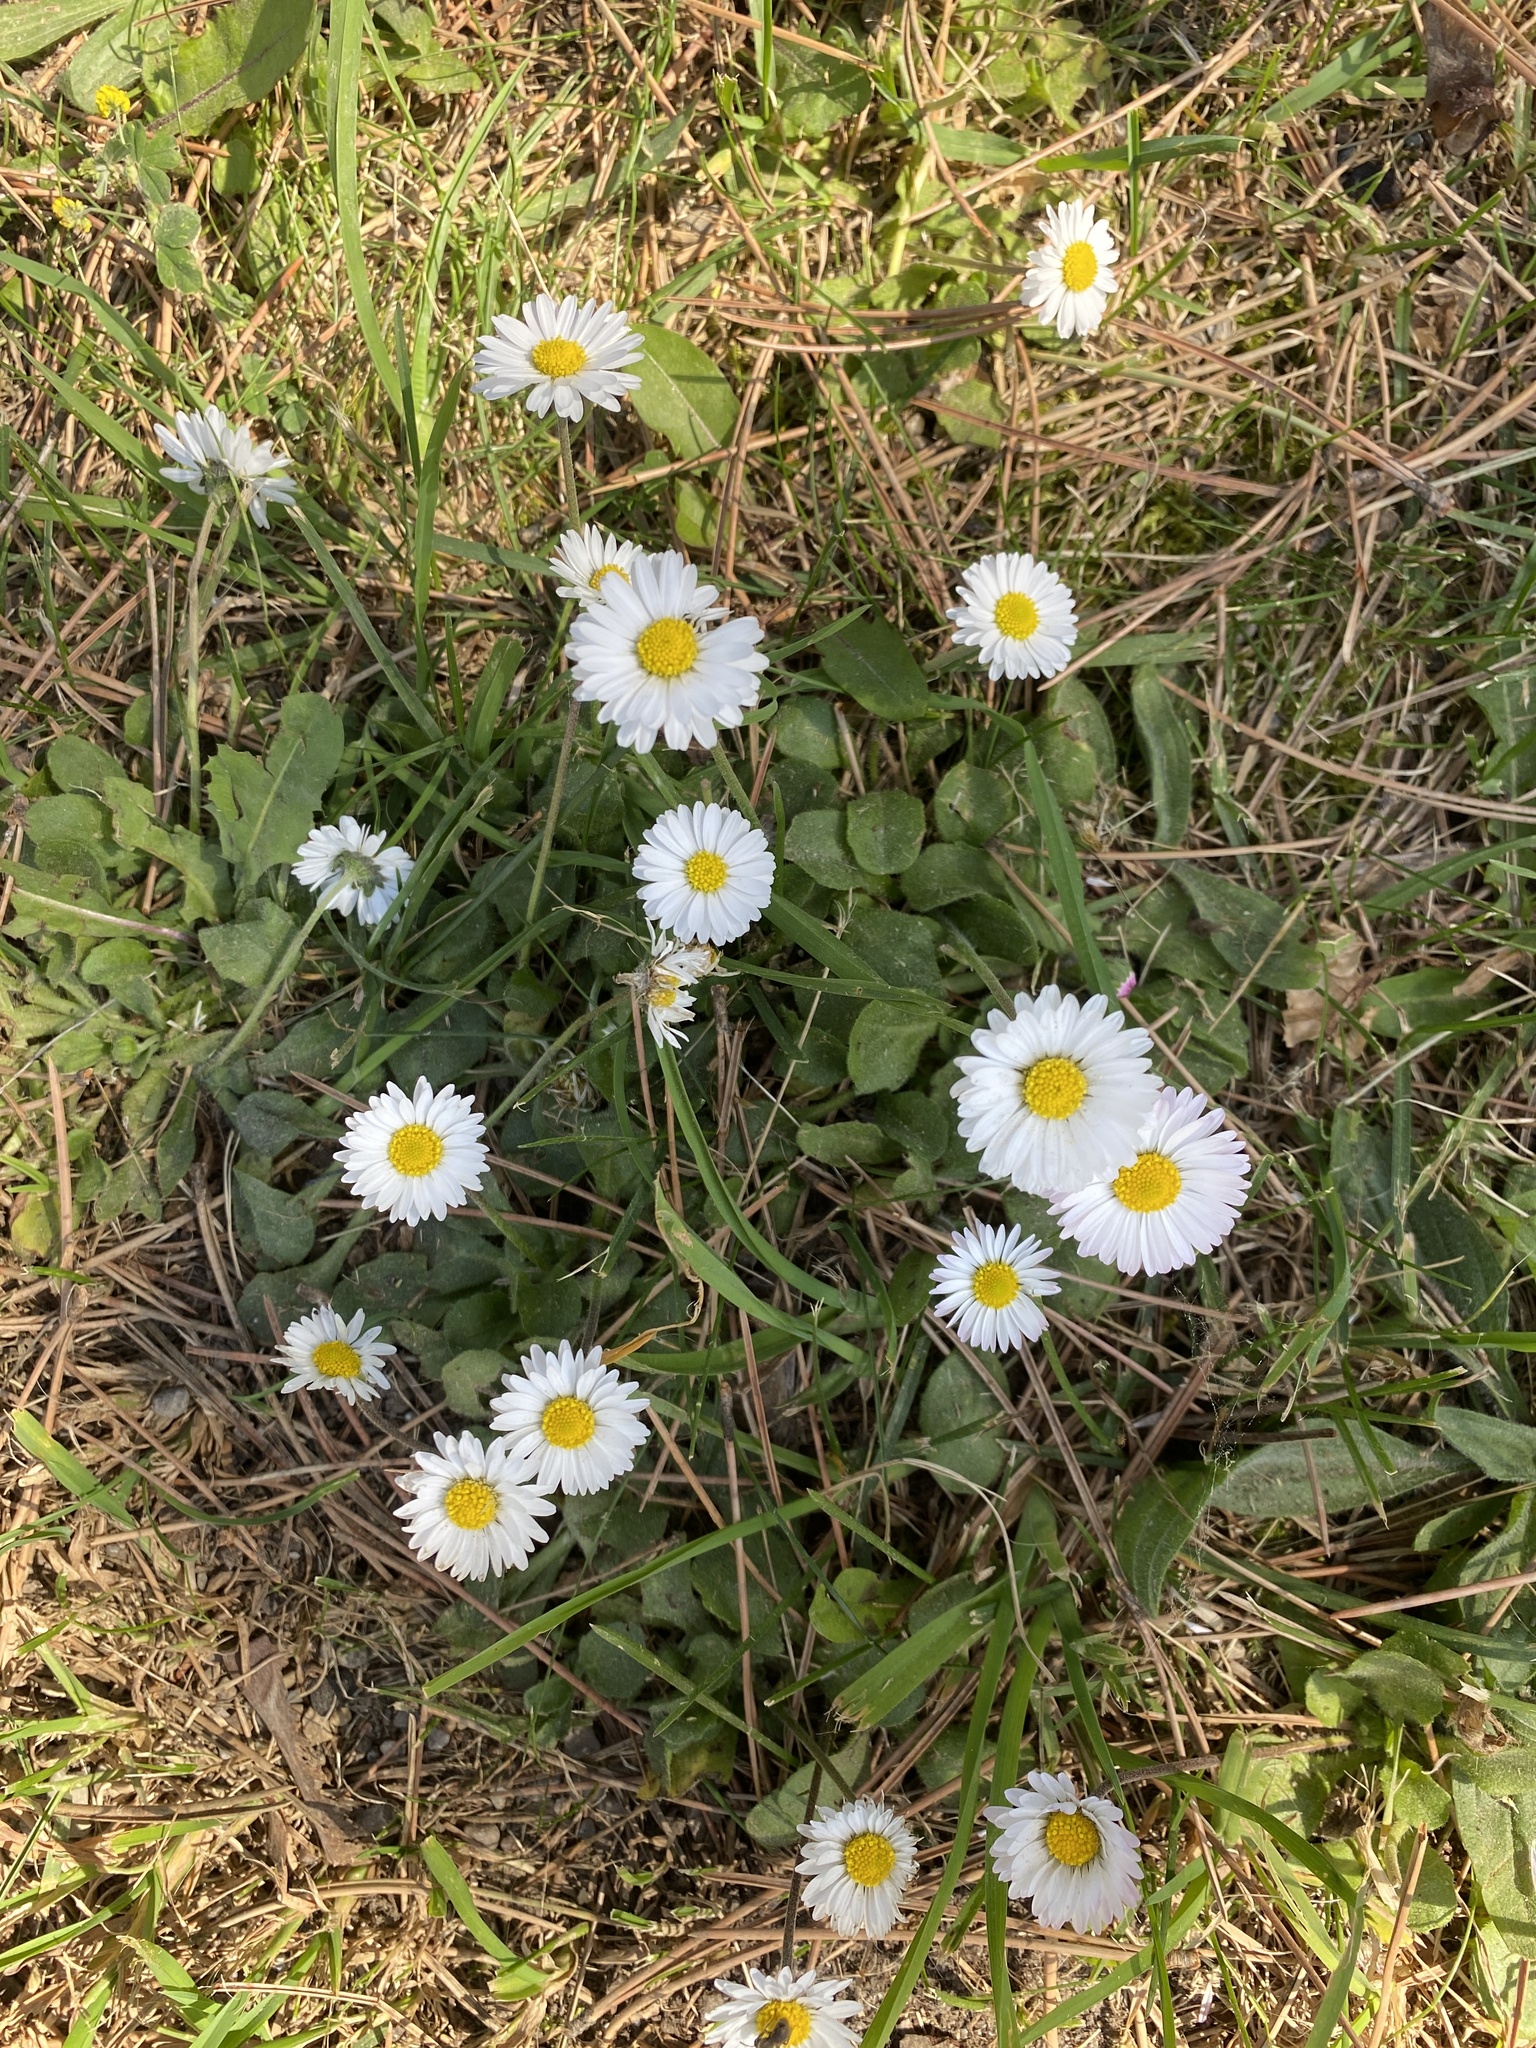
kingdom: Plantae
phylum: Tracheophyta
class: Magnoliopsida
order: Asterales
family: Asteraceae
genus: Bellis
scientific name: Bellis perennis
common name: Lawndaisy
